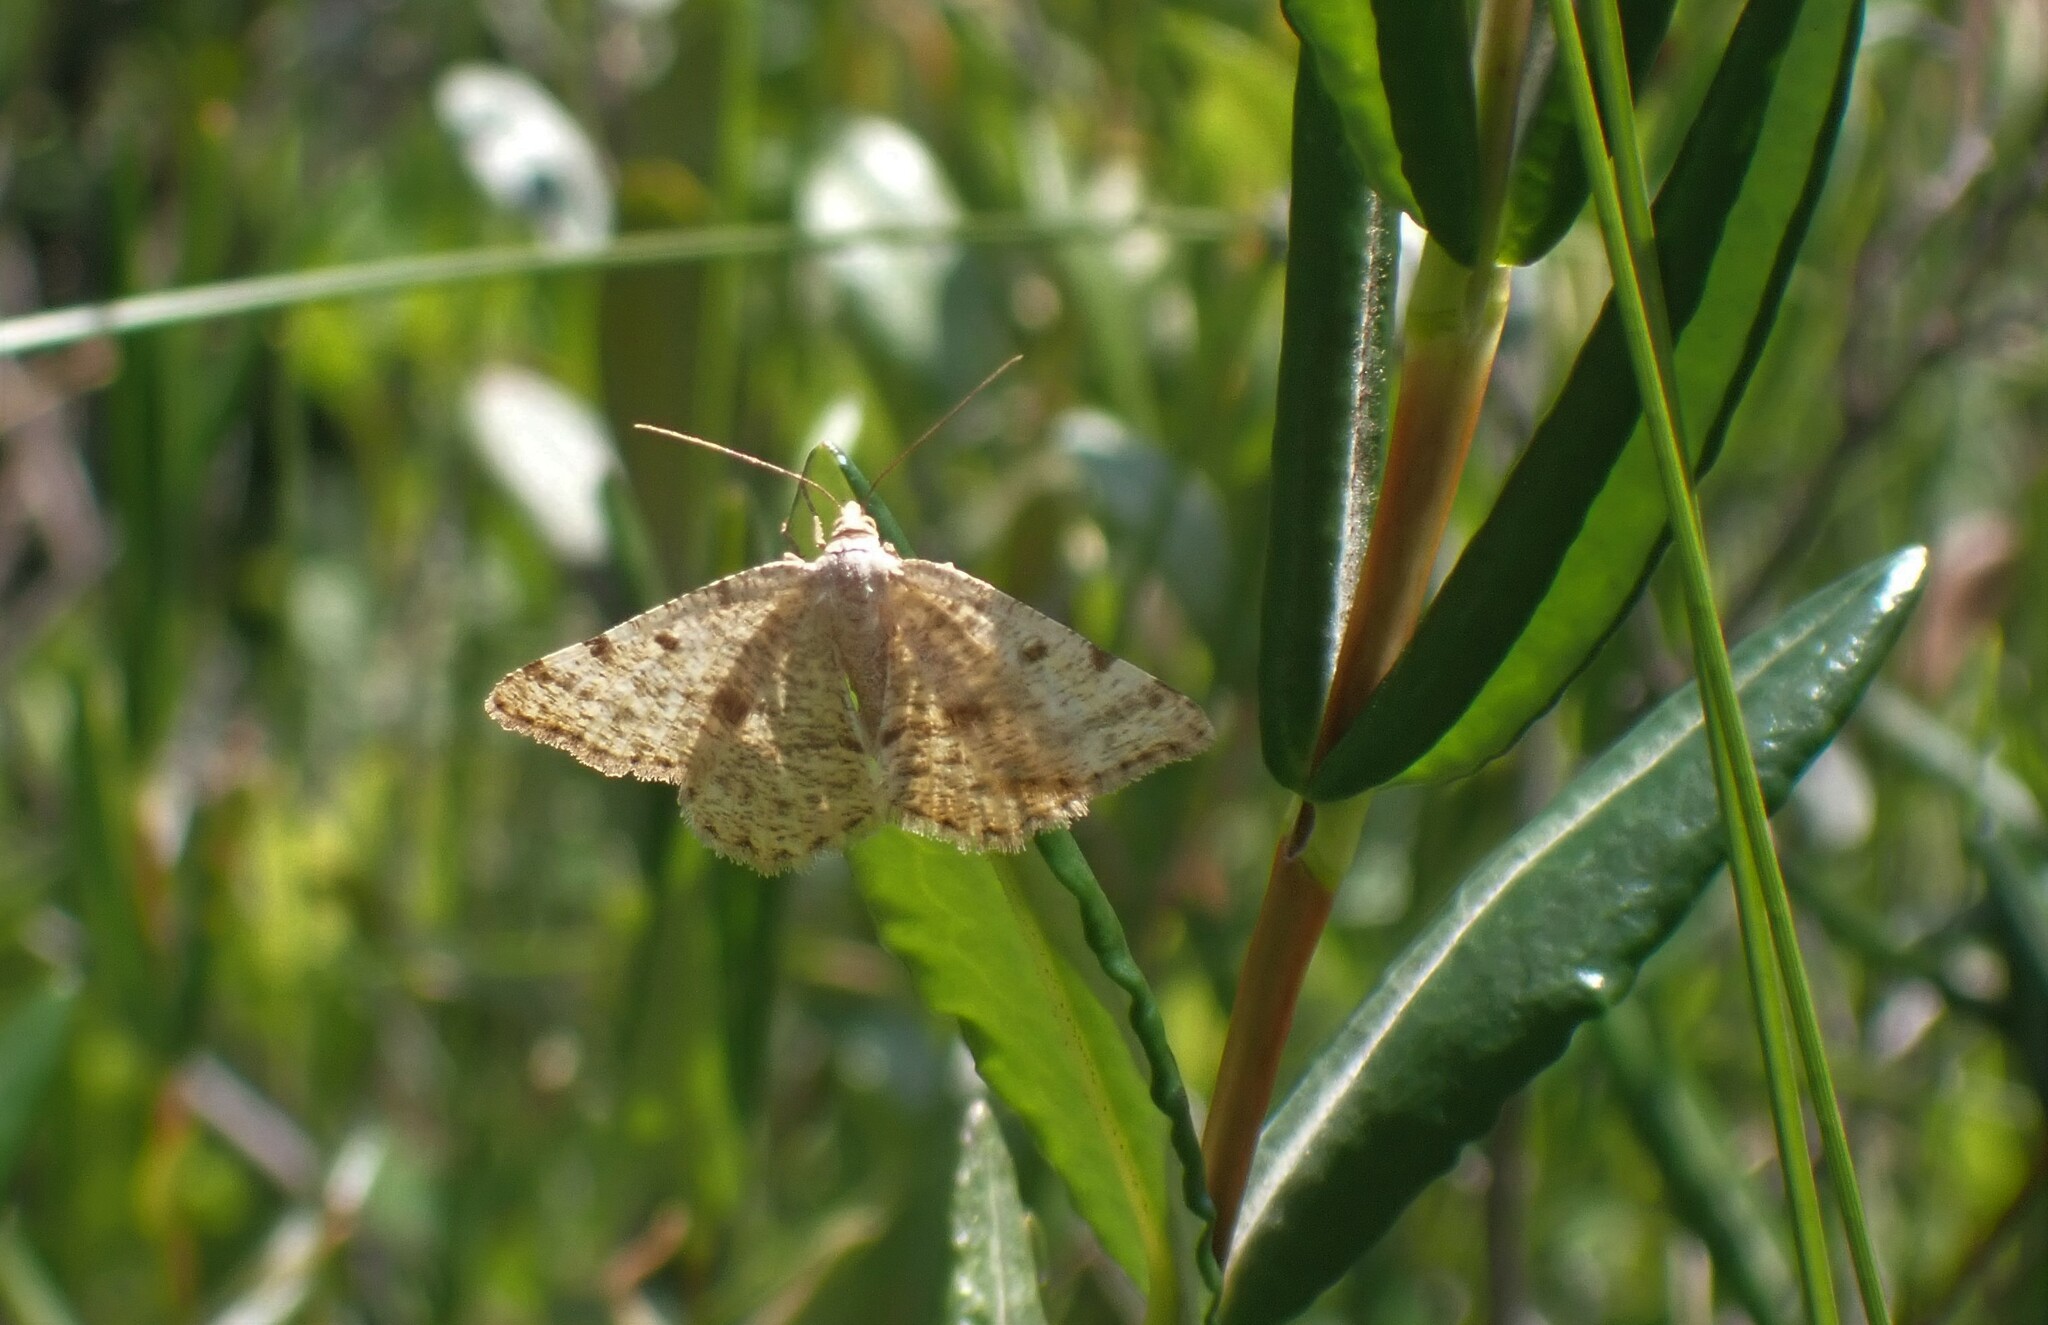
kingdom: Animalia
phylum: Arthropoda
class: Insecta
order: Lepidoptera
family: Geometridae
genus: Macaria
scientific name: Macaria sulphurea
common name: Sulphur angle
